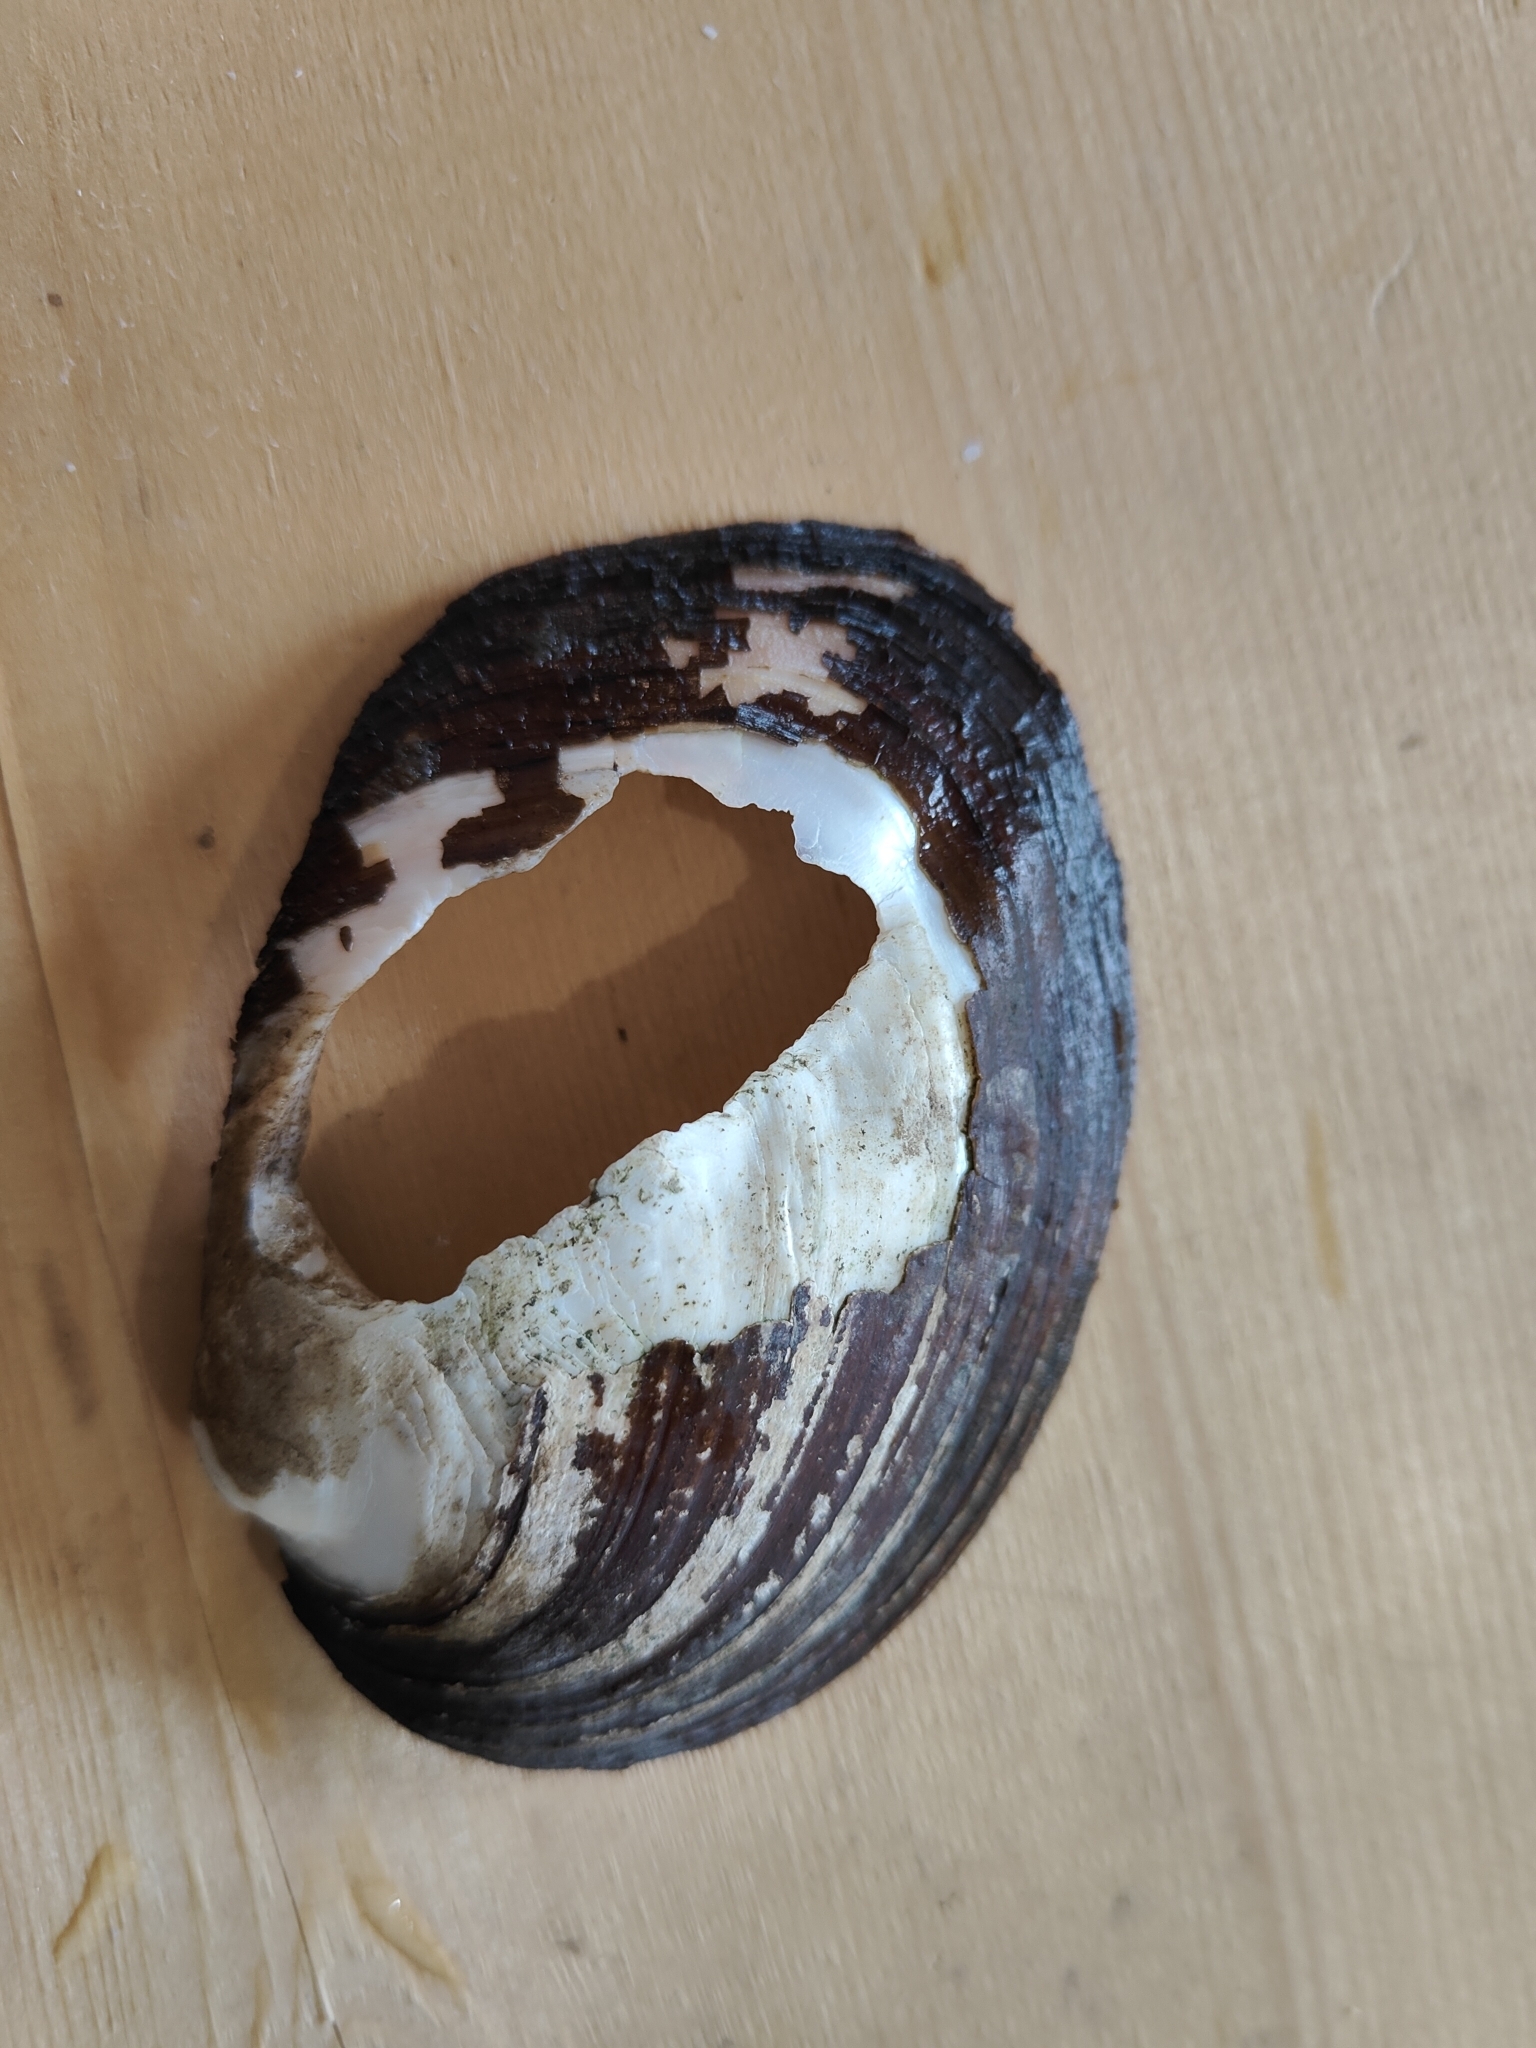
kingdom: Animalia
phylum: Mollusca
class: Bivalvia
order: Unionida
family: Unionidae
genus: Amblema
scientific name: Amblema plicata
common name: Threeridge
